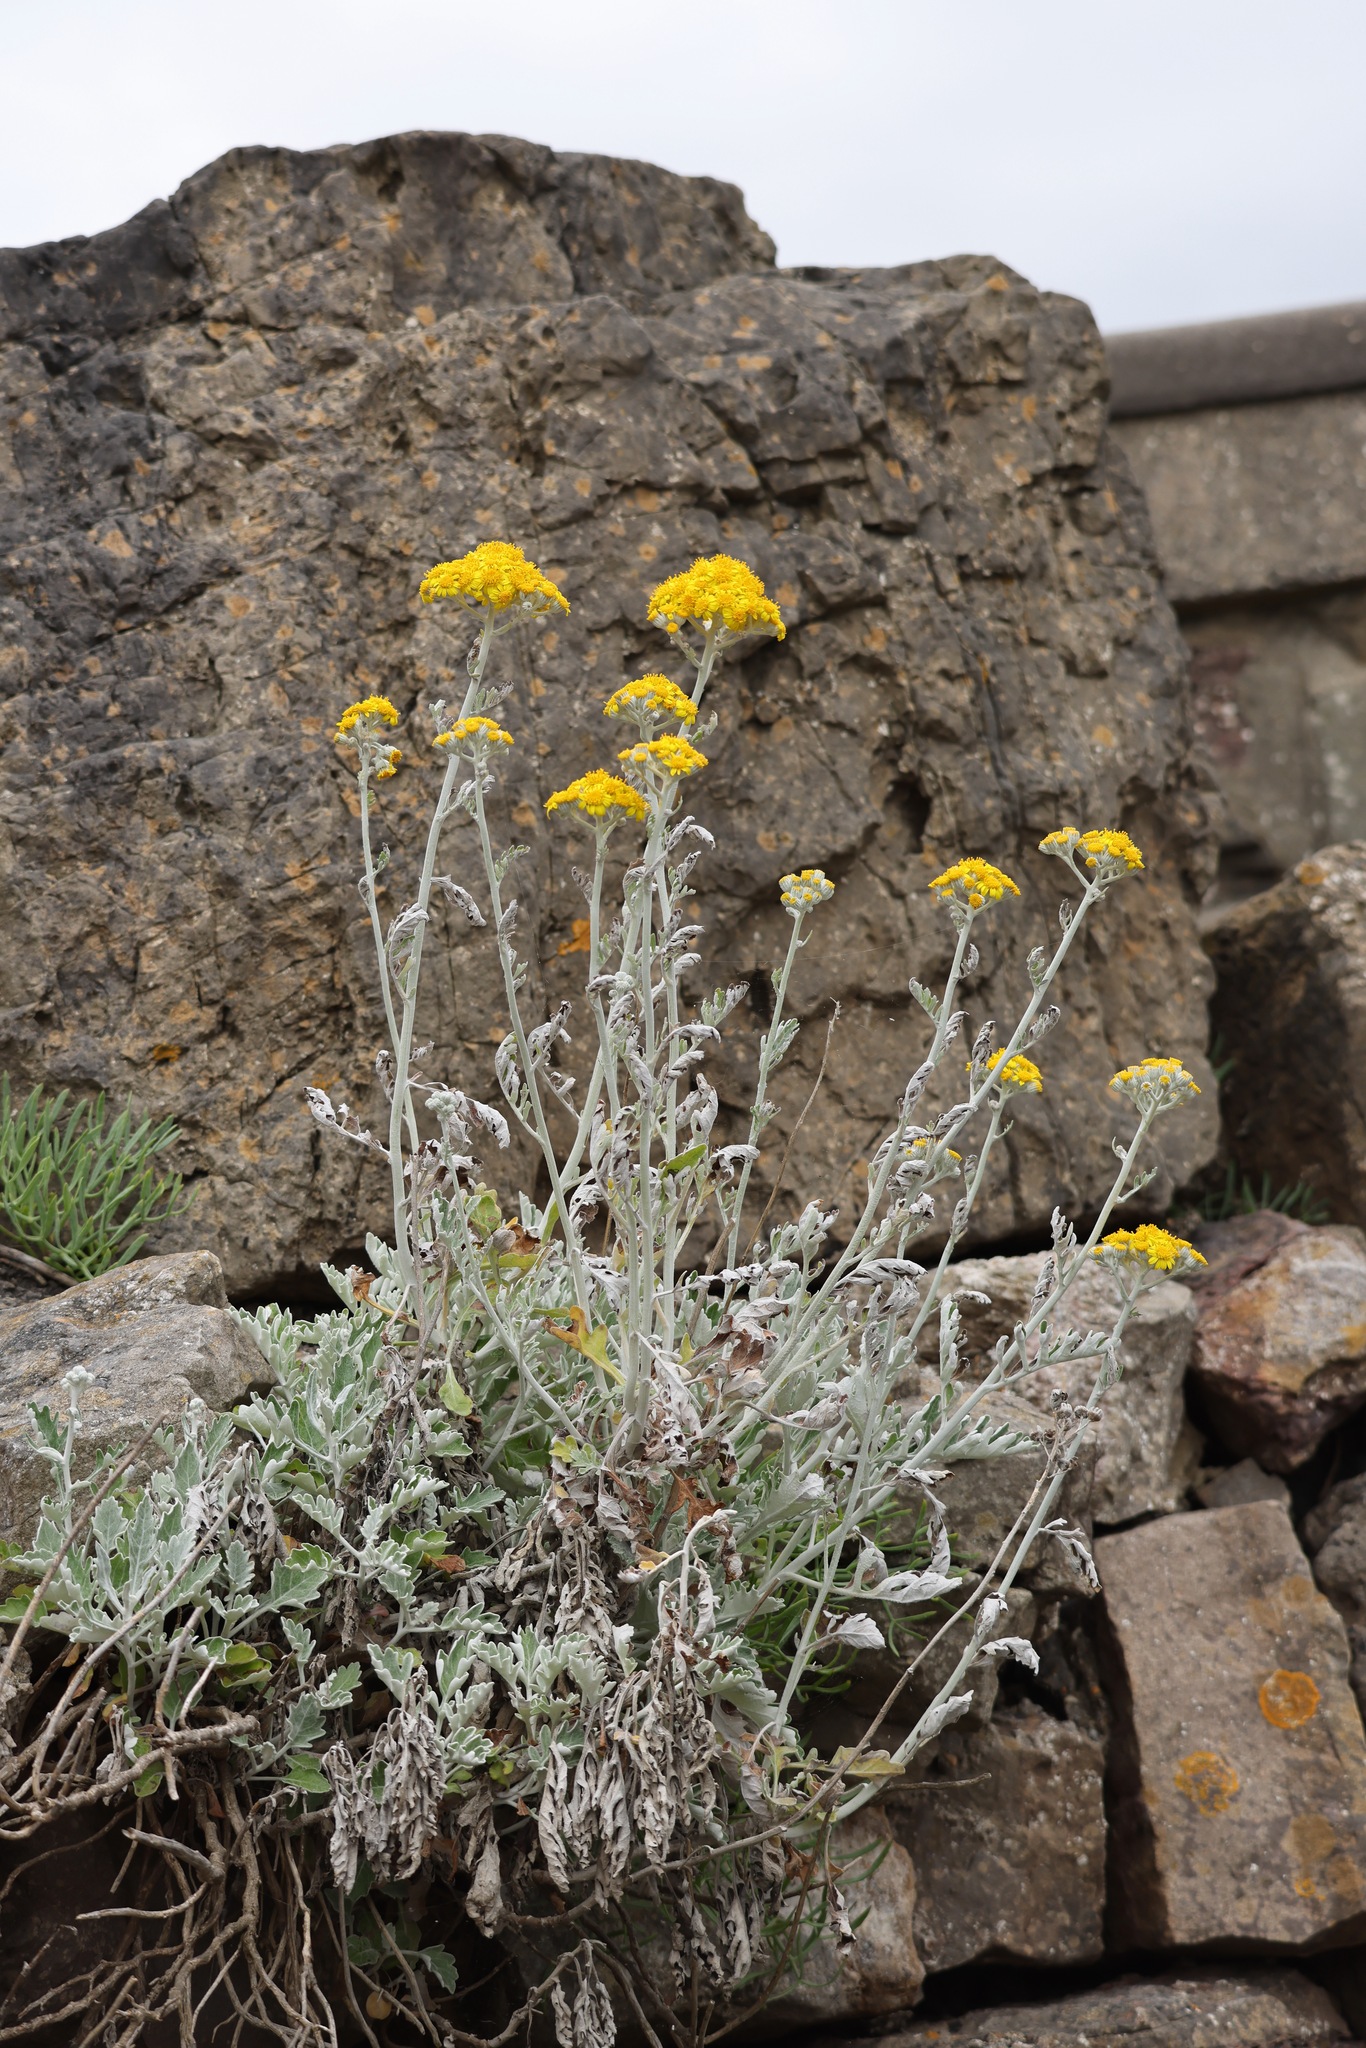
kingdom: Plantae
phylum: Tracheophyta
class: Magnoliopsida
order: Asterales
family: Asteraceae
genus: Jacobaea
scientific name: Jacobaea maritima
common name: Silver ragwort
